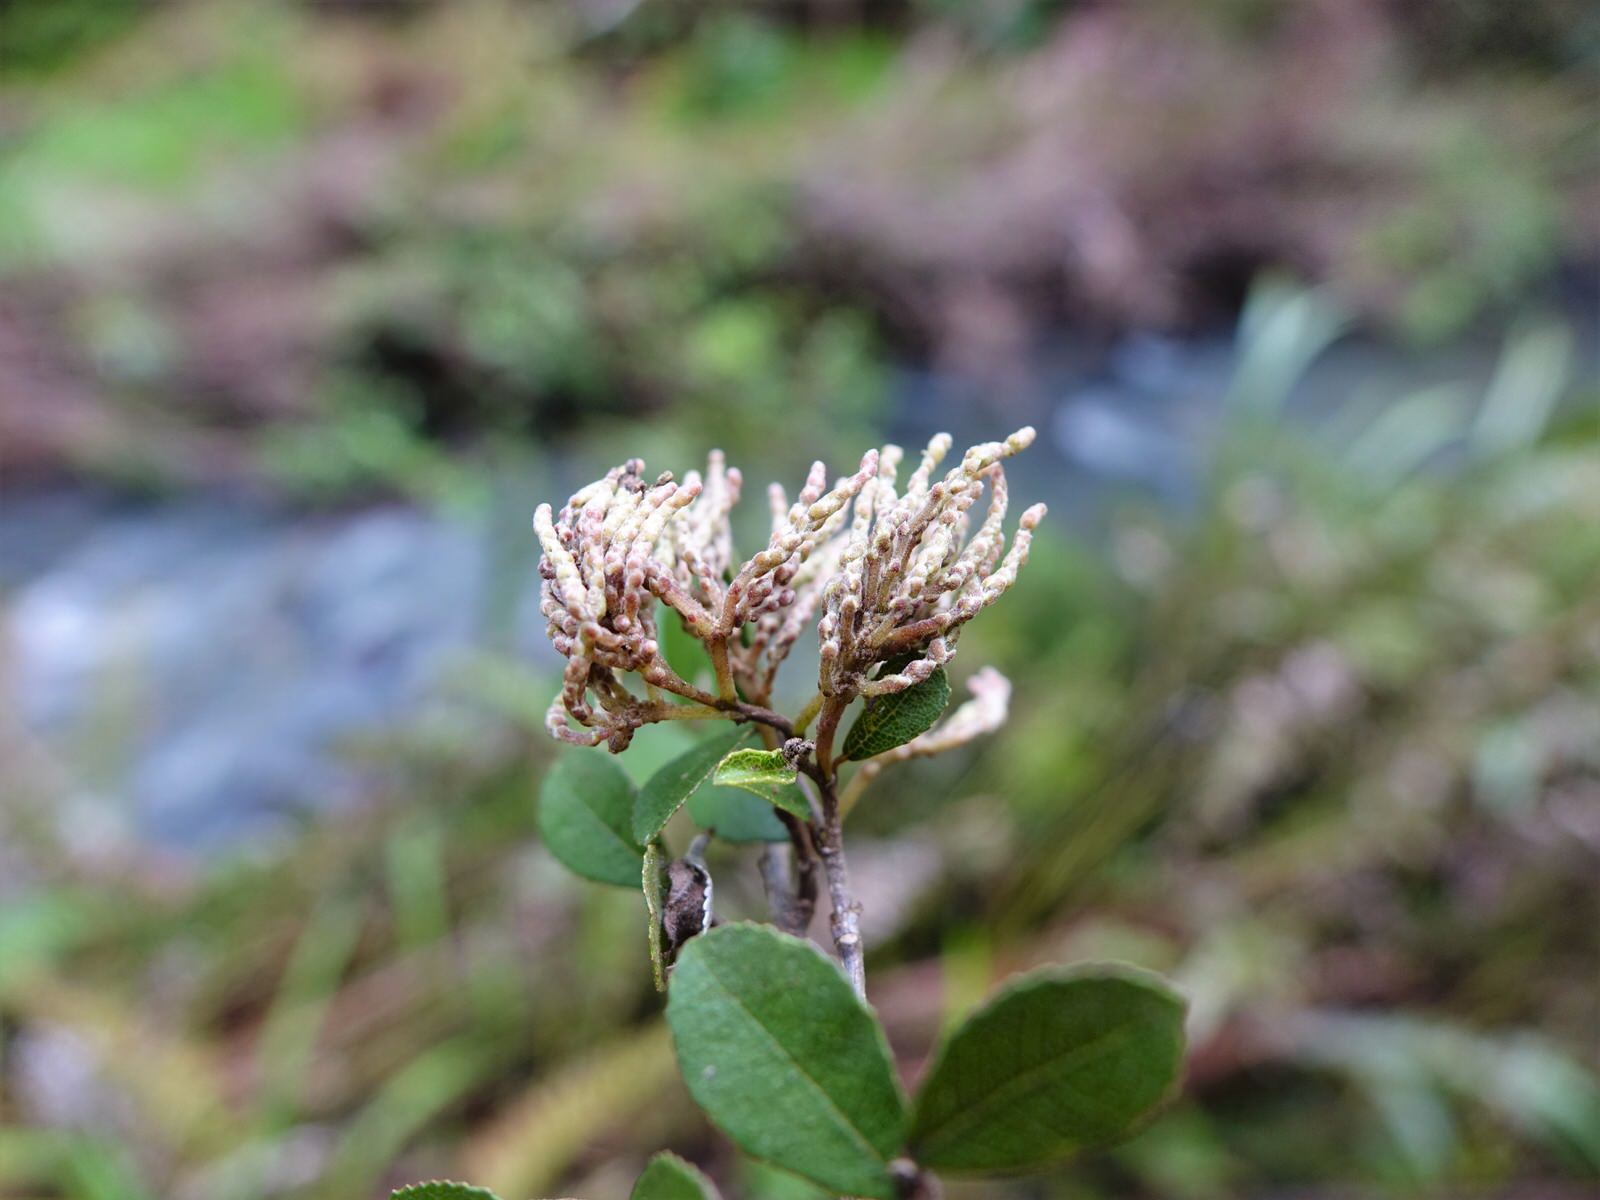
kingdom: Plantae
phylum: Tracheophyta
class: Magnoliopsida
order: Rosales
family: Moraceae
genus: Paratrophis
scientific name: Paratrophis microphylla
